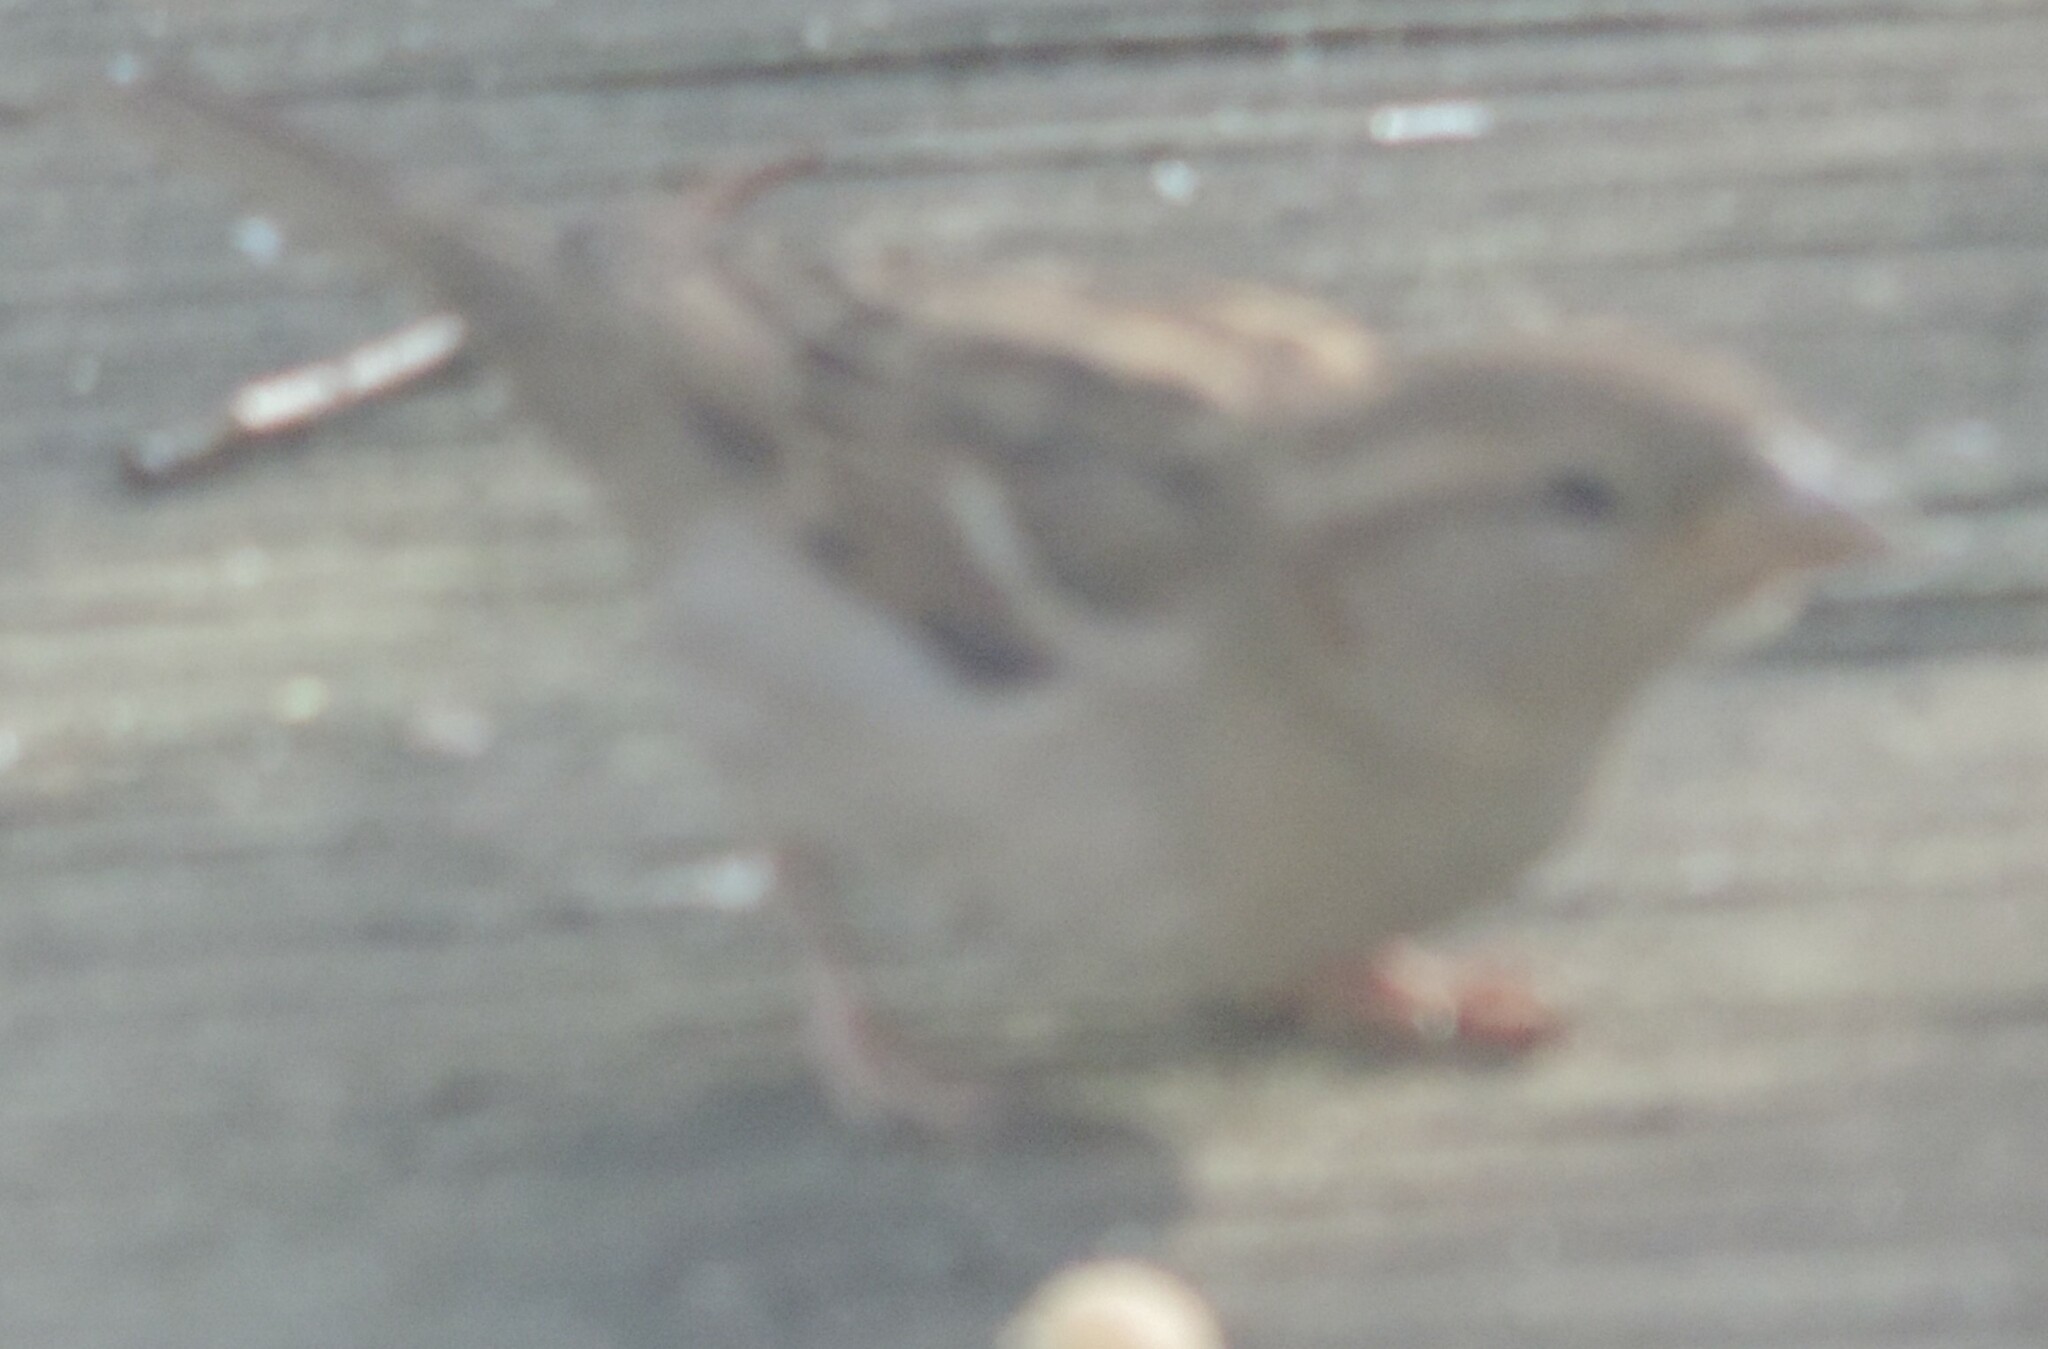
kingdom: Animalia
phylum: Chordata
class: Aves
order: Passeriformes
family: Passeridae
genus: Passer
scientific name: Passer domesticus
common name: House sparrow
